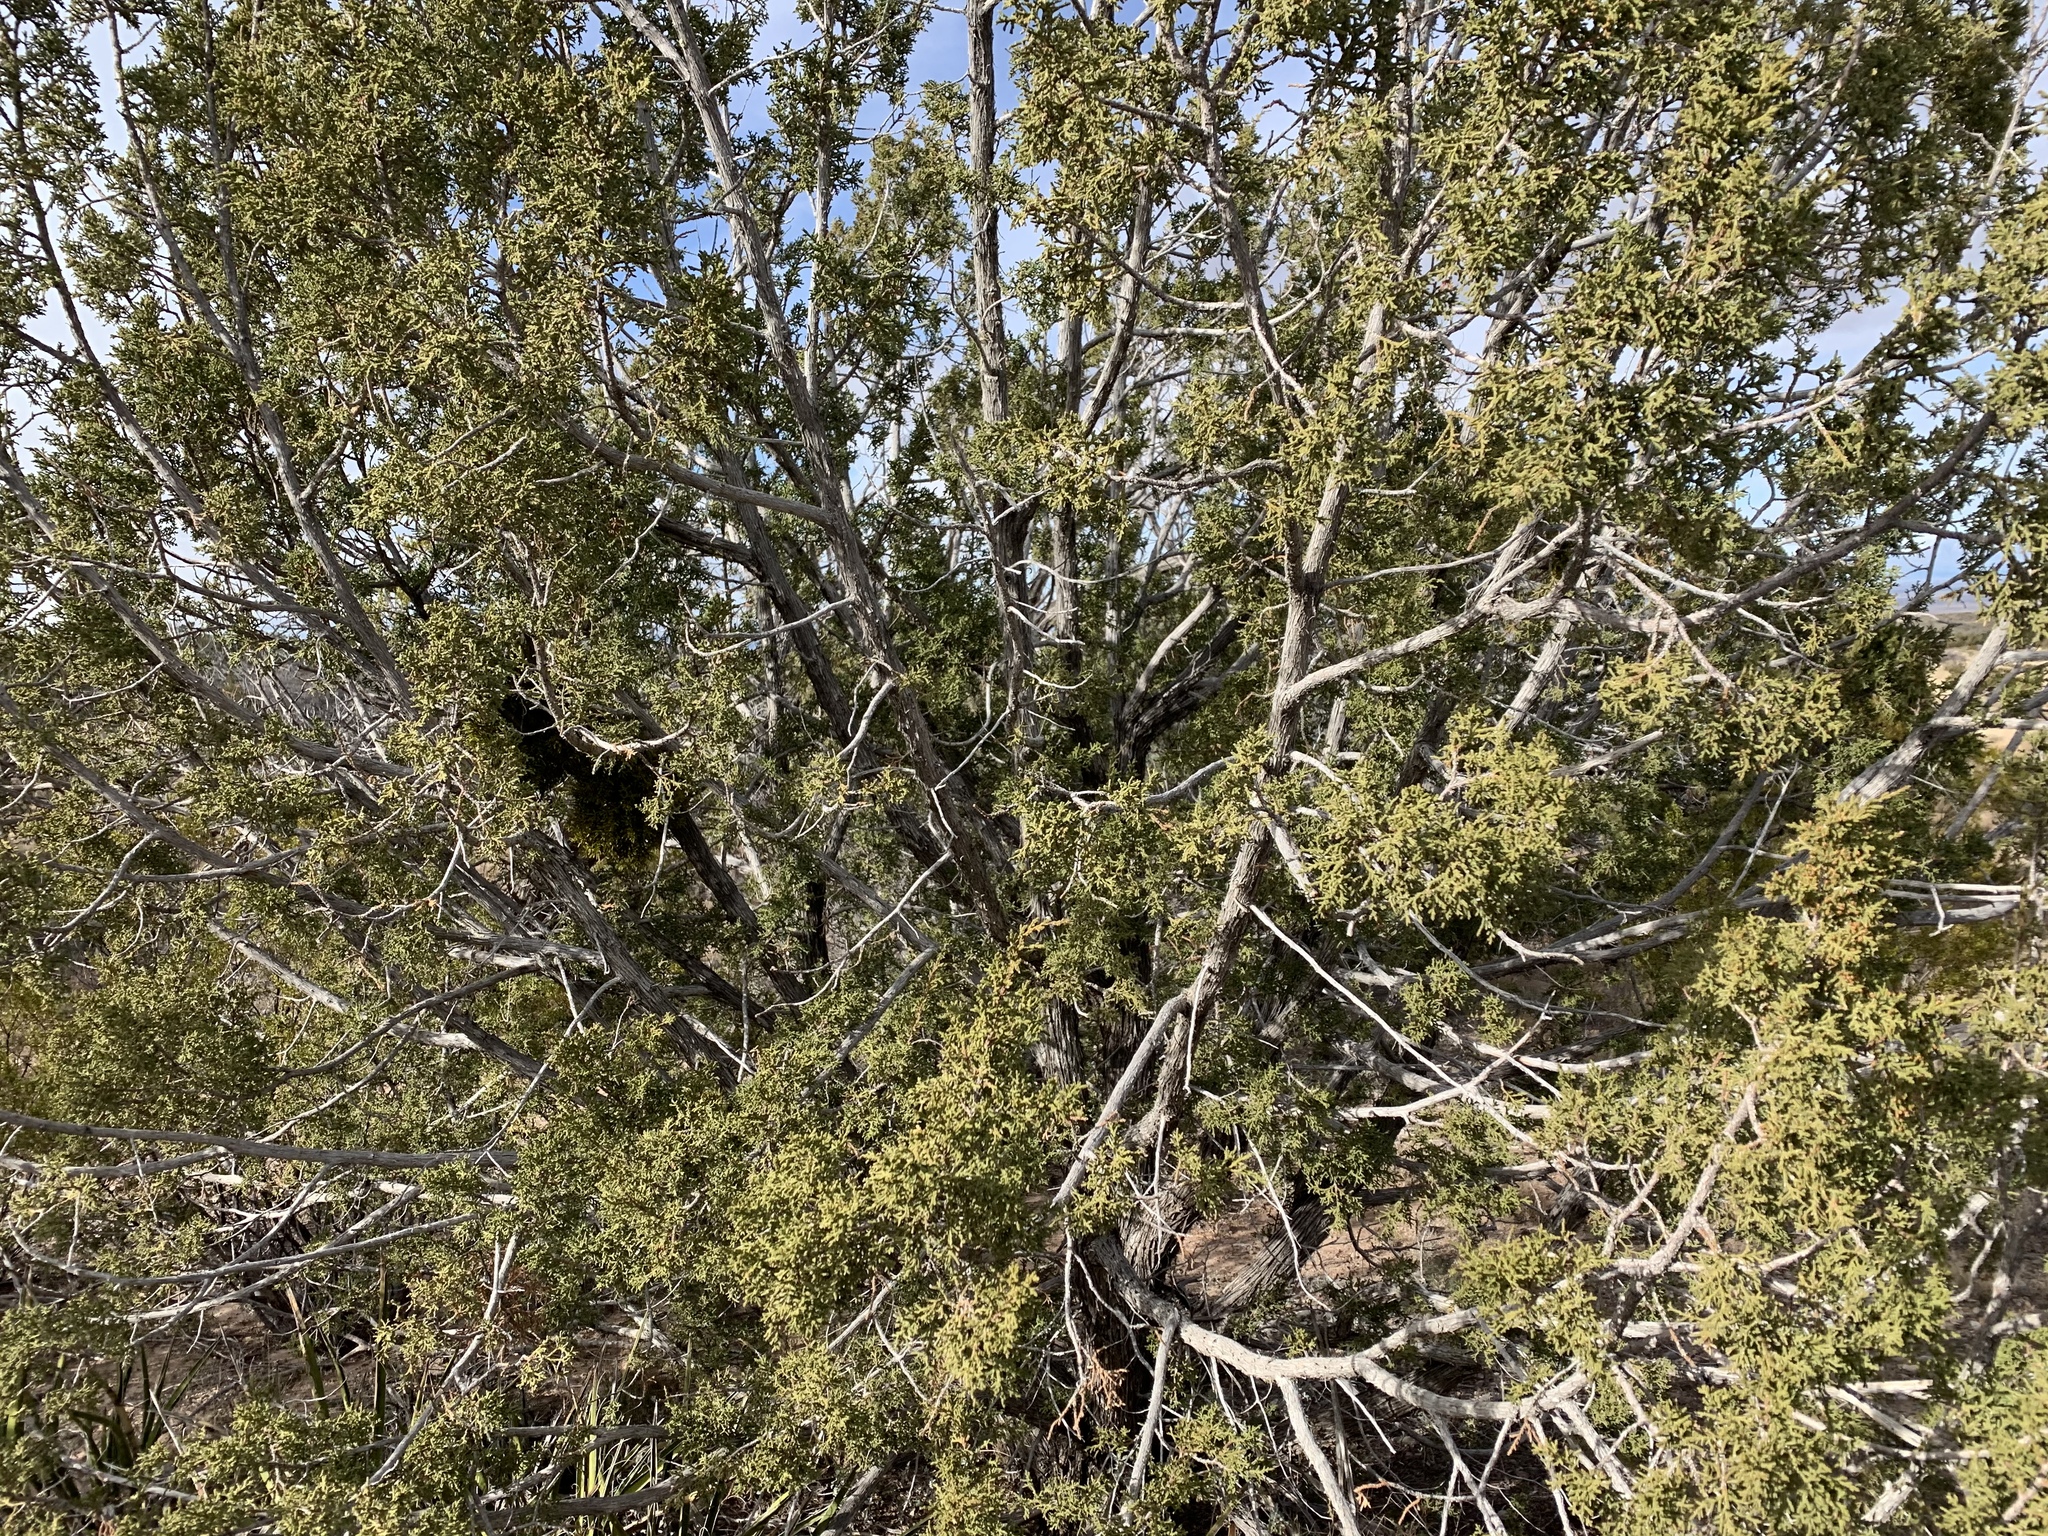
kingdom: Plantae
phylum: Tracheophyta
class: Pinopsida
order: Pinales
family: Cupressaceae
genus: Juniperus
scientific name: Juniperus monosperma
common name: One-seed juniper
